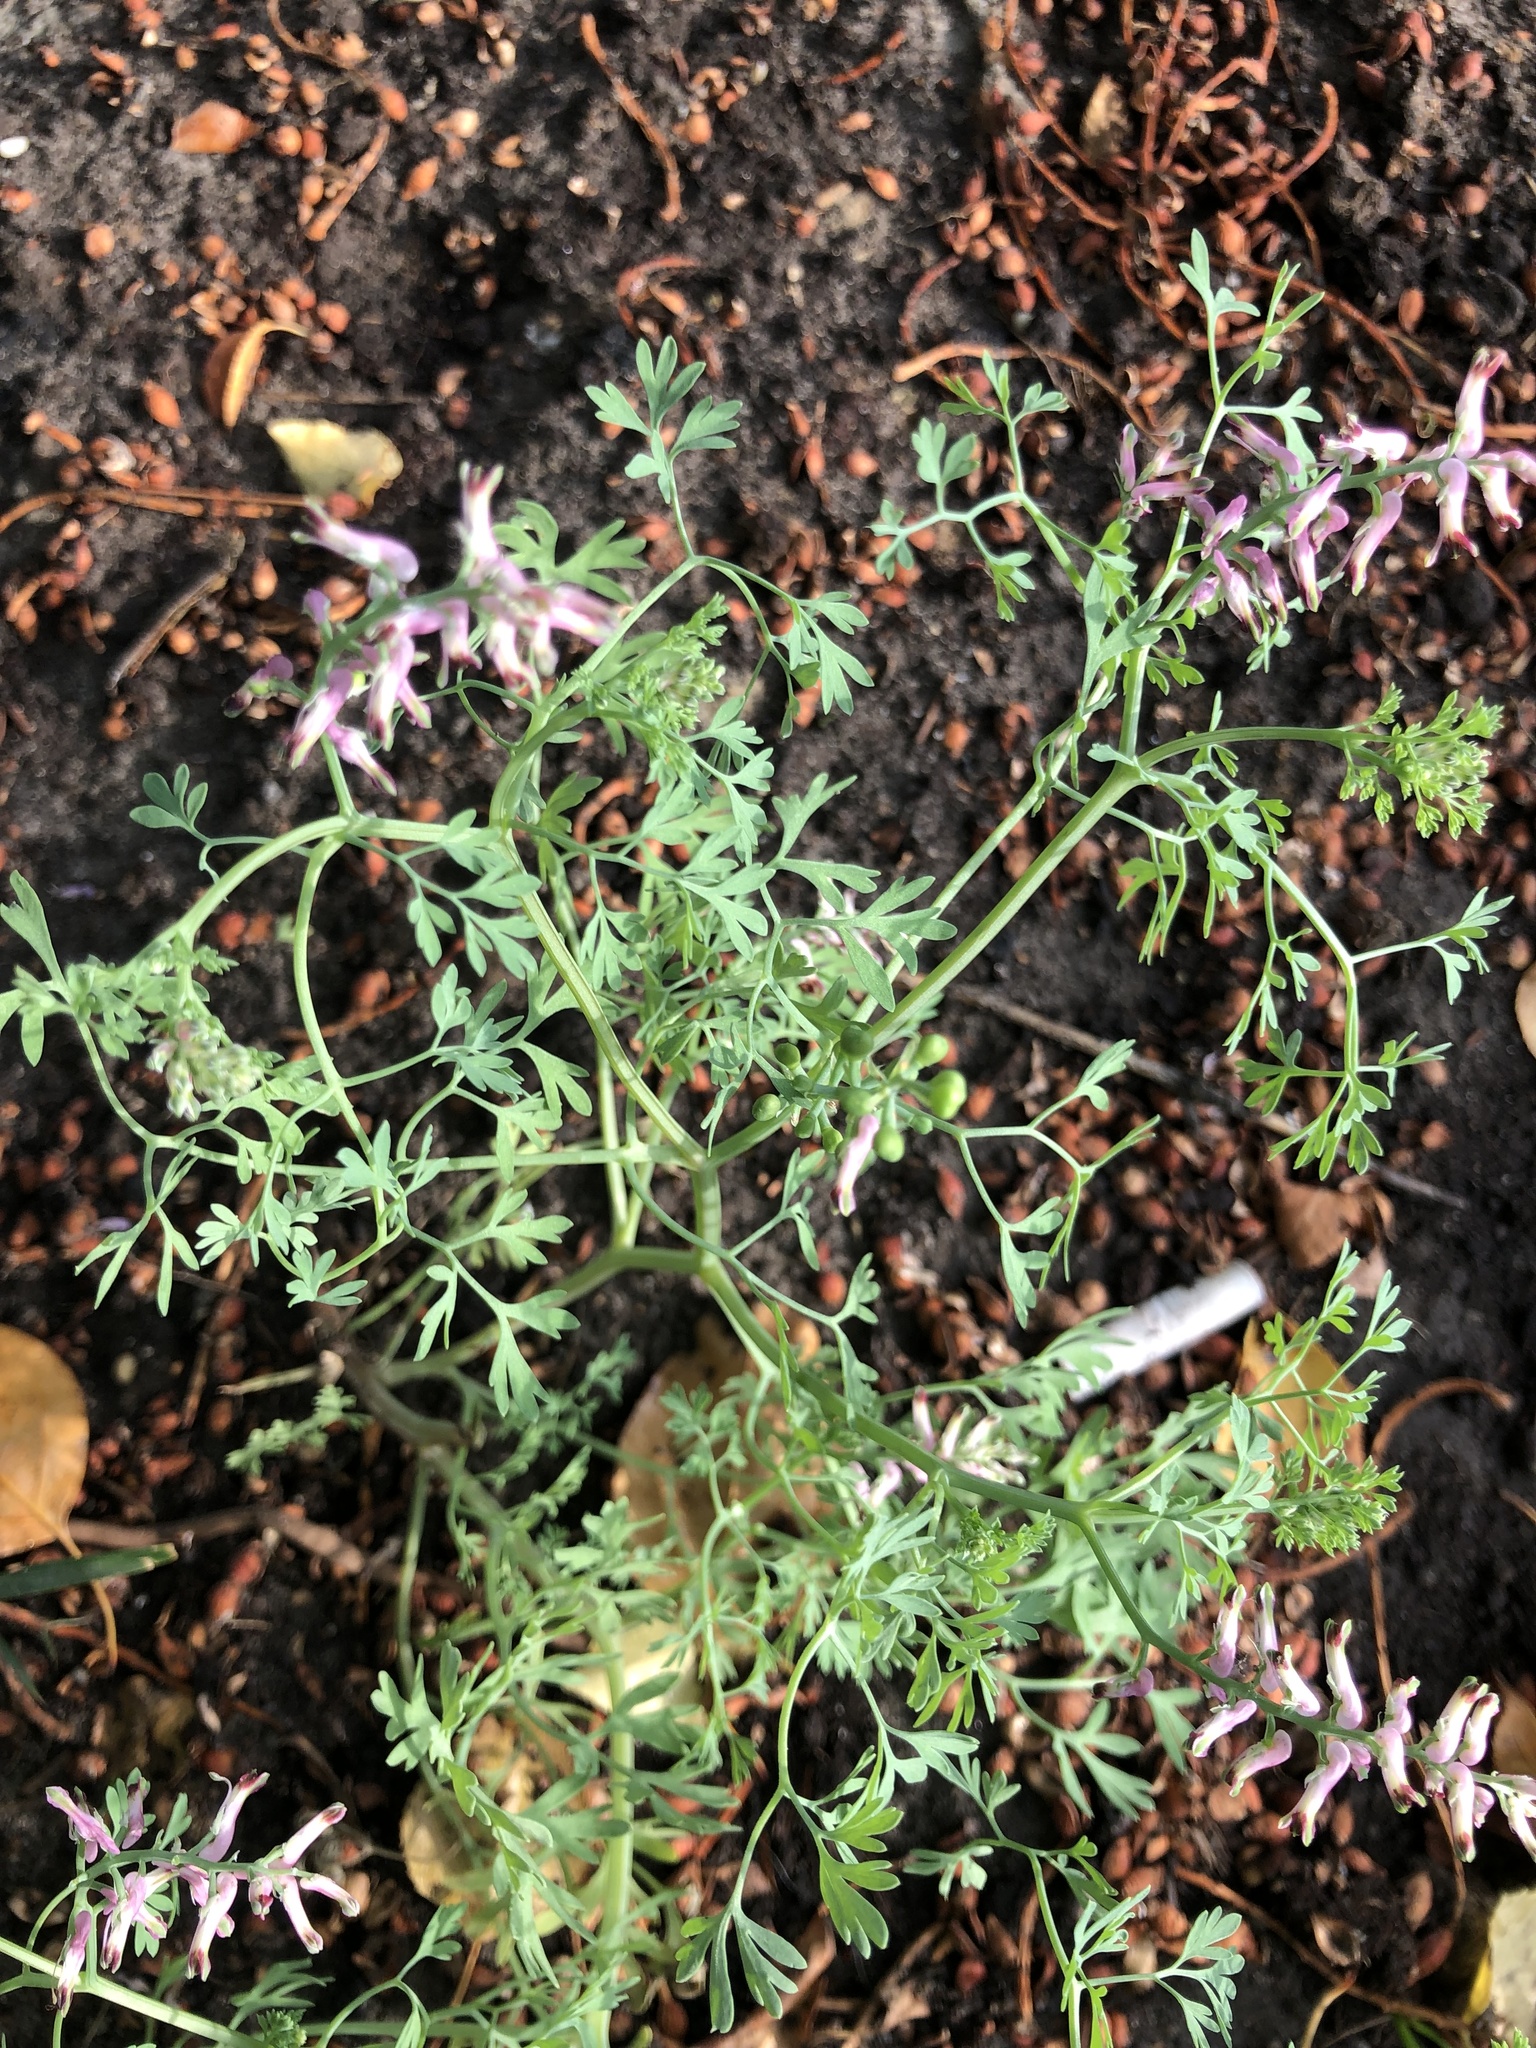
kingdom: Plantae
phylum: Tracheophyta
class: Magnoliopsida
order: Ranunculales
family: Papaveraceae
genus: Fumaria
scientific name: Fumaria officinalis
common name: Common fumitory
